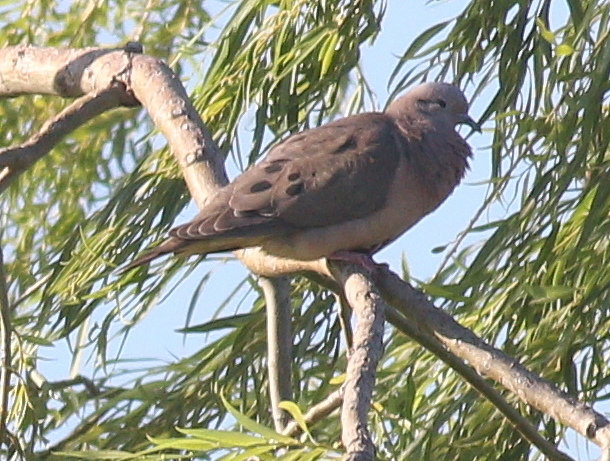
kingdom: Animalia
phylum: Chordata
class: Aves
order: Columbiformes
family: Columbidae
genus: Zenaida
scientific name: Zenaida auriculata
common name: Eared dove
